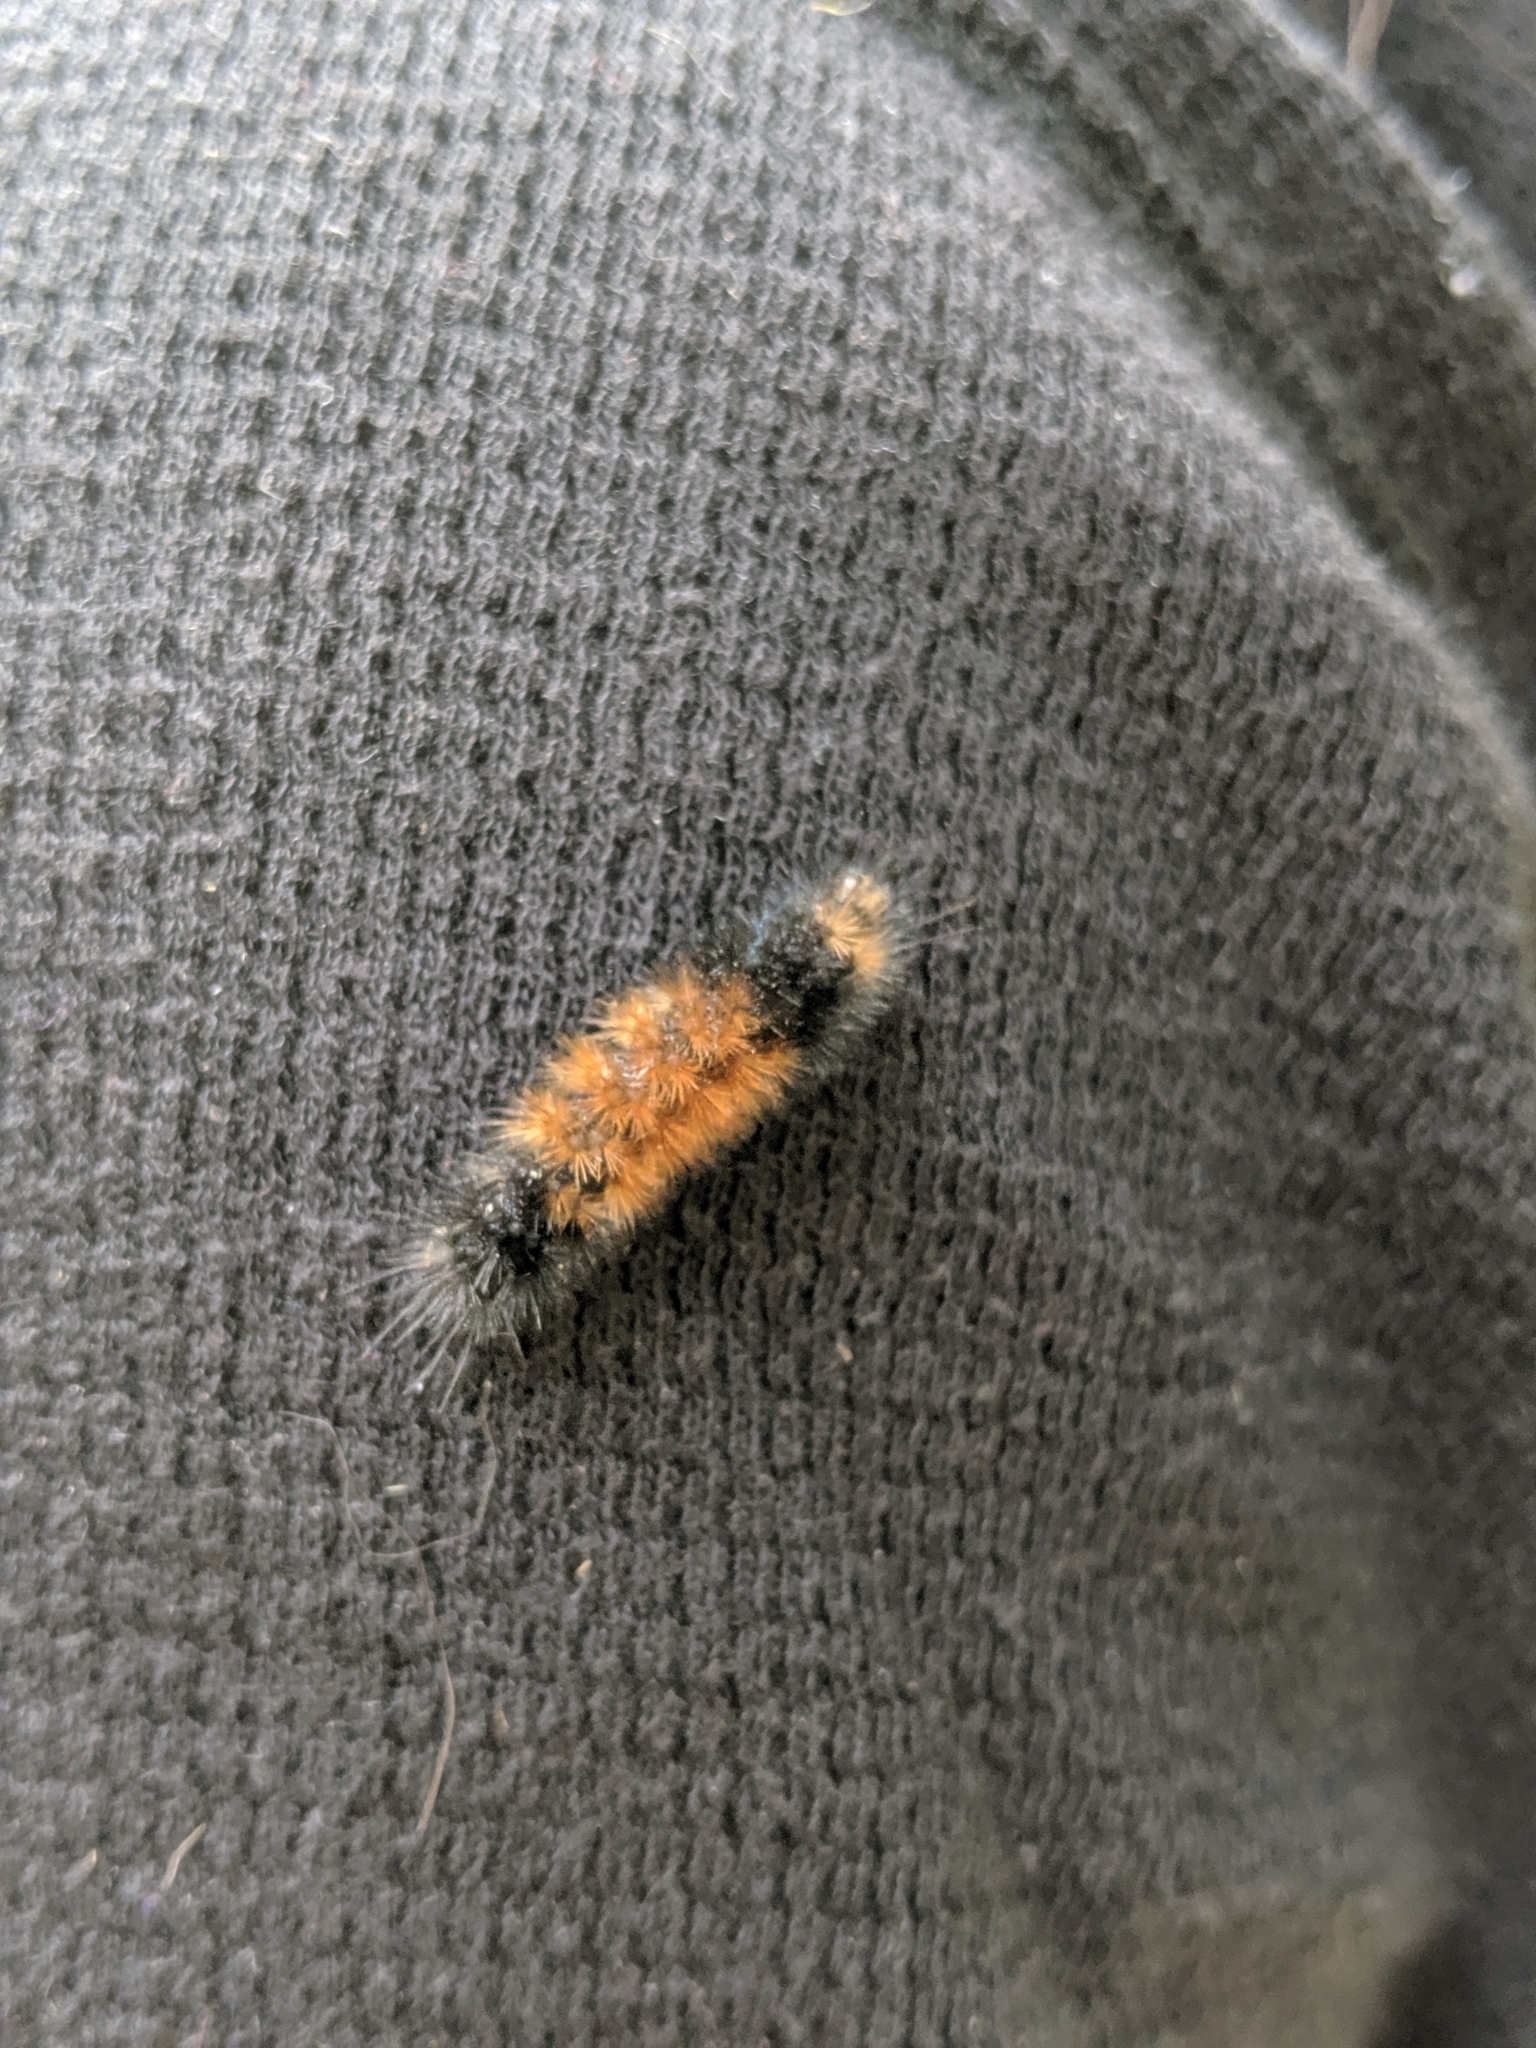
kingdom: Animalia
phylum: Arthropoda
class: Insecta
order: Lepidoptera
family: Erebidae
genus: Pyrrharctia
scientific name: Pyrrharctia isabella
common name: Isabella tiger moth
